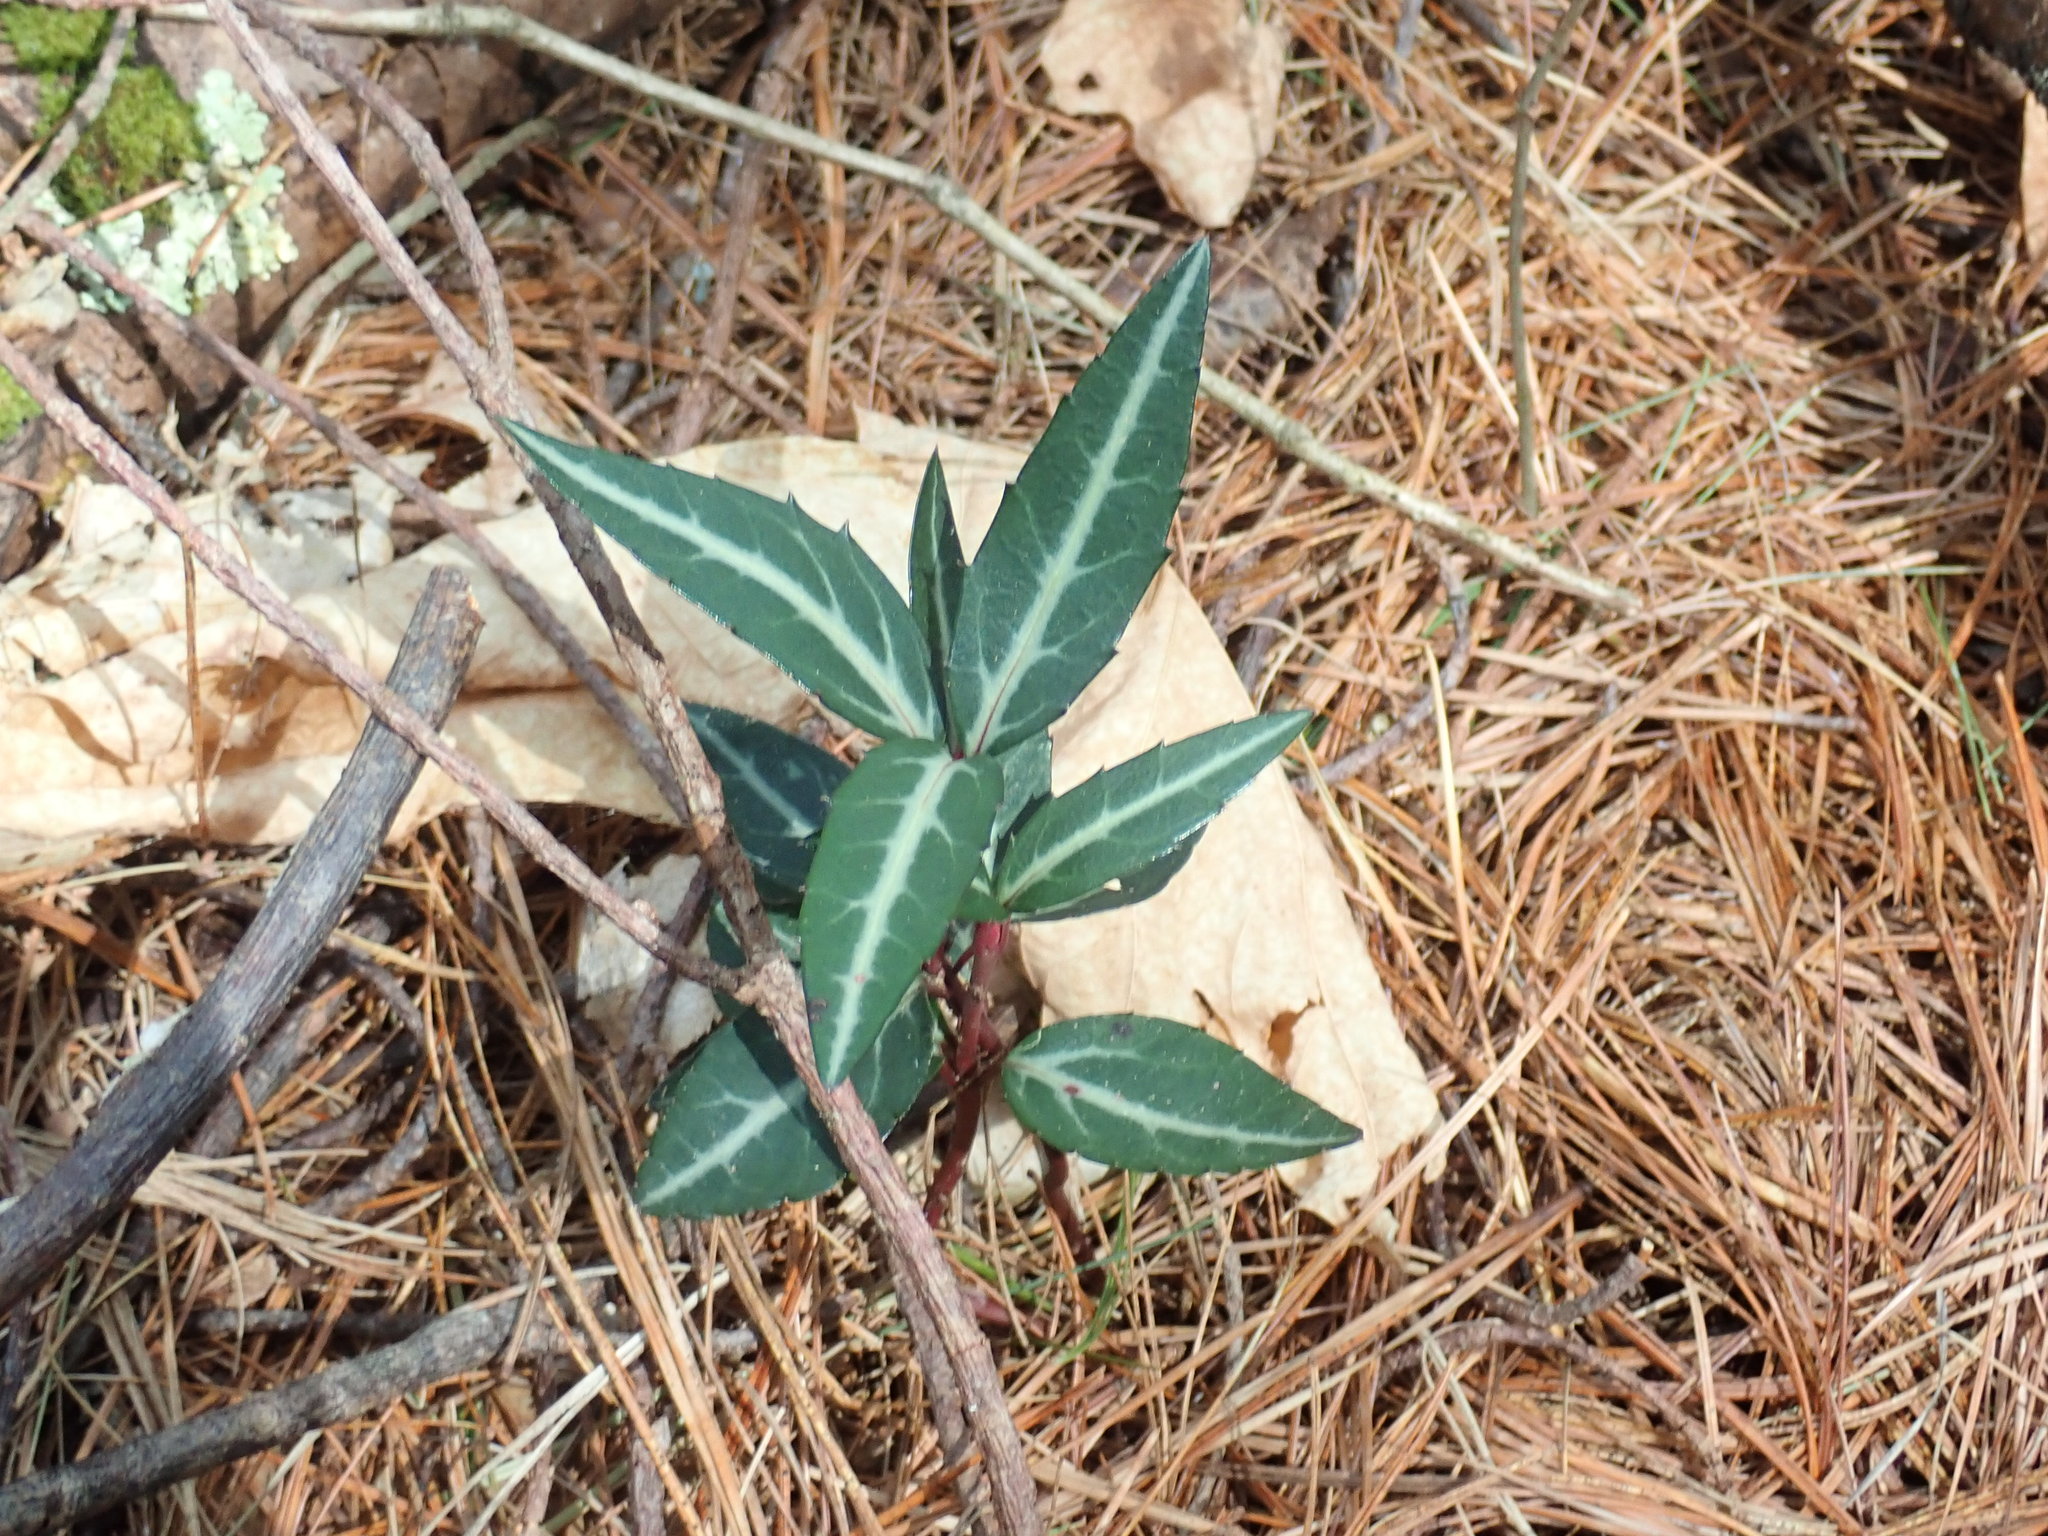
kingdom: Plantae
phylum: Tracheophyta
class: Magnoliopsida
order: Ericales
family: Ericaceae
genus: Chimaphila
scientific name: Chimaphila maculata
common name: Spotted pipsissewa
